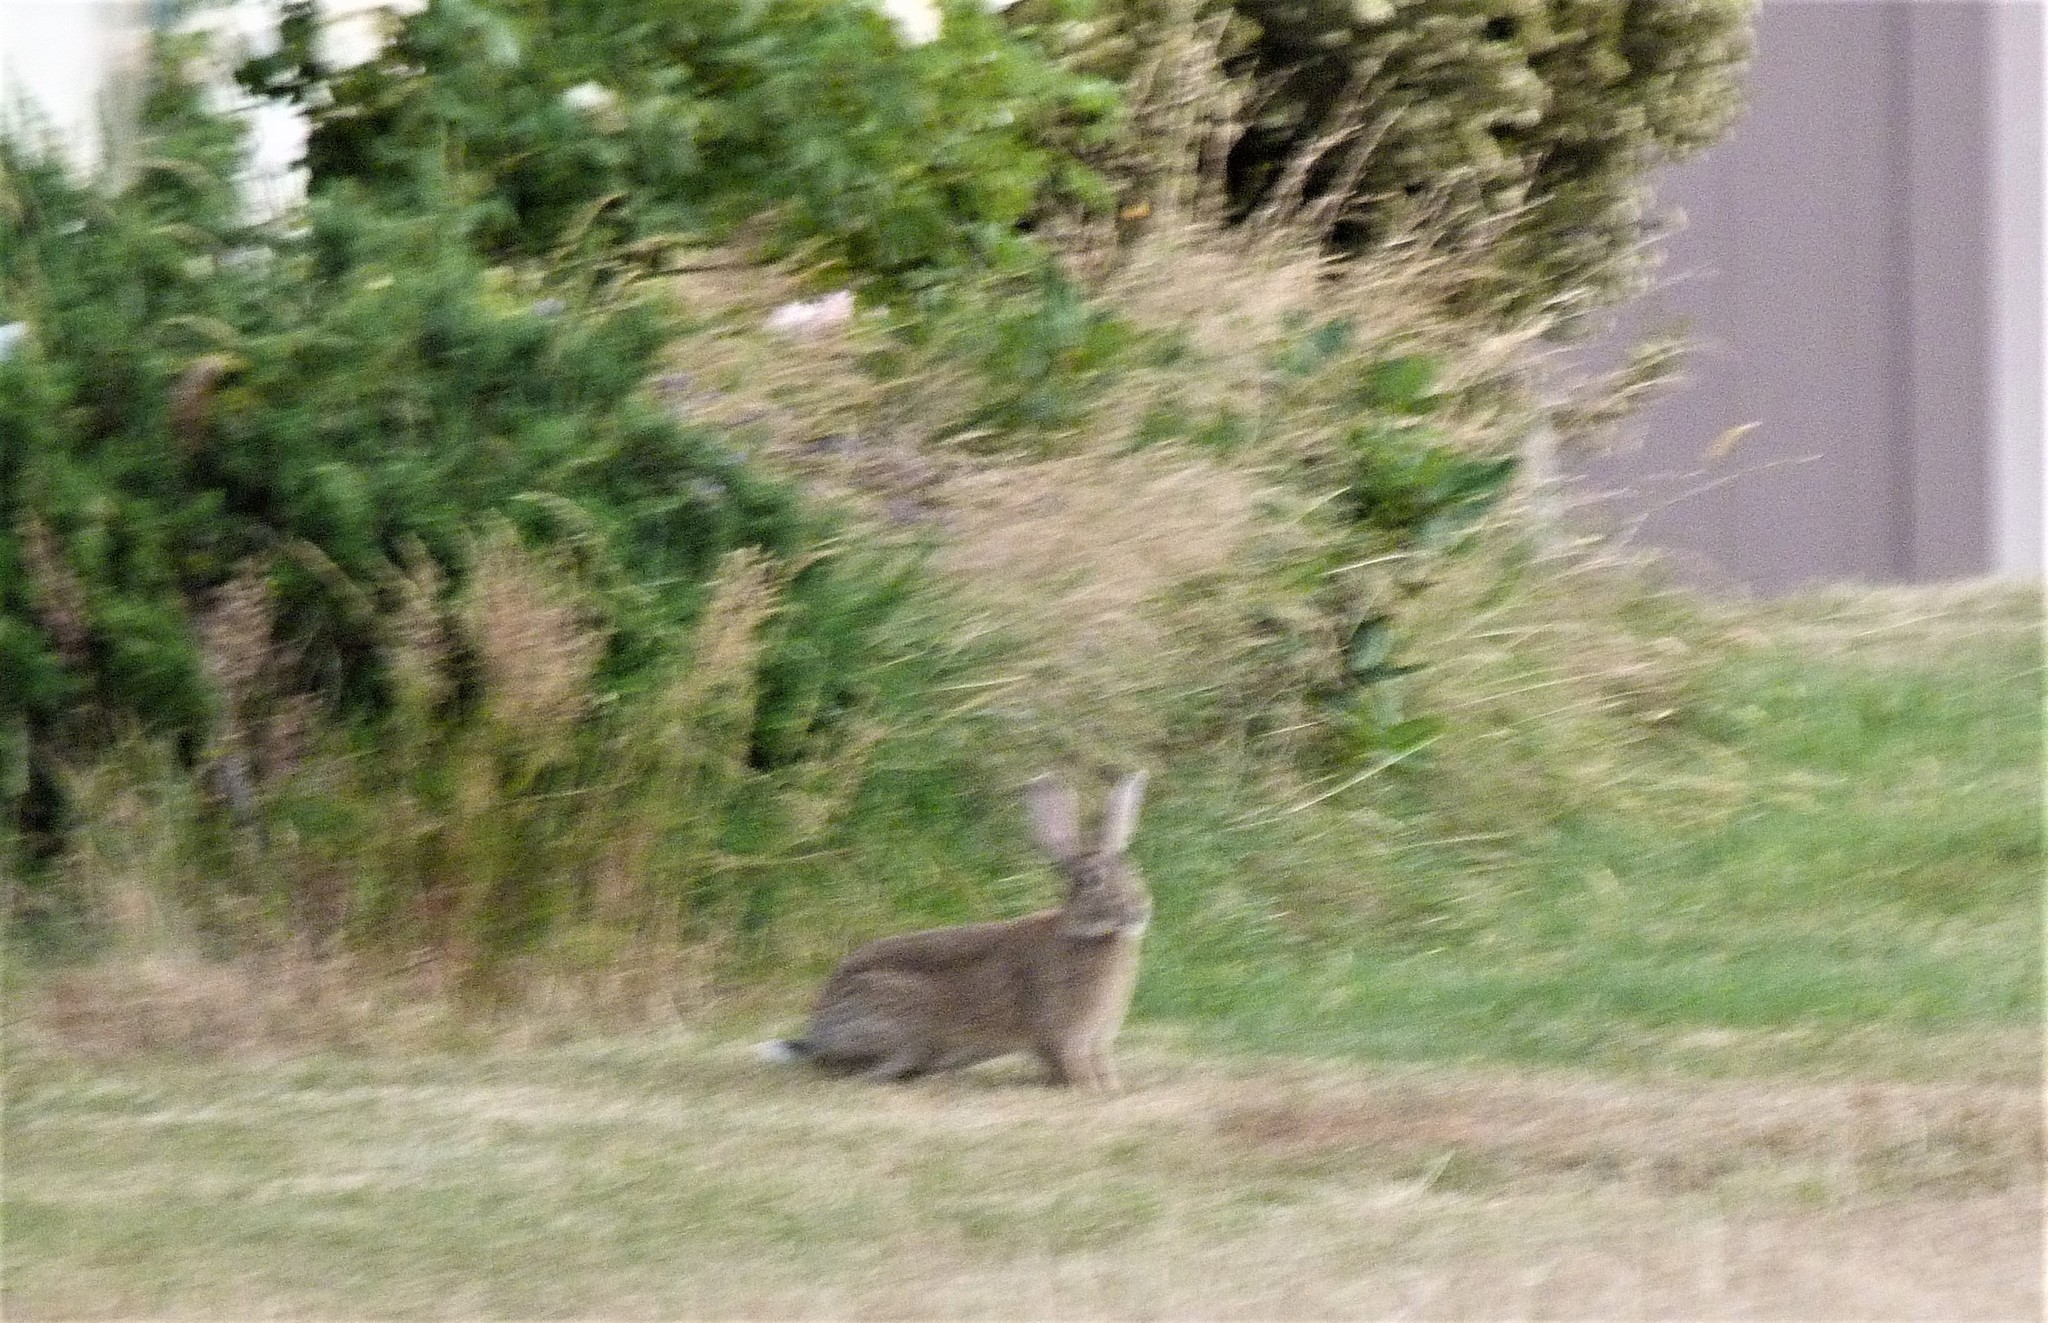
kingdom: Animalia
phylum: Chordata
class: Mammalia
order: Lagomorpha
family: Leporidae
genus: Oryctolagus
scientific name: Oryctolagus cuniculus
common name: European rabbit
